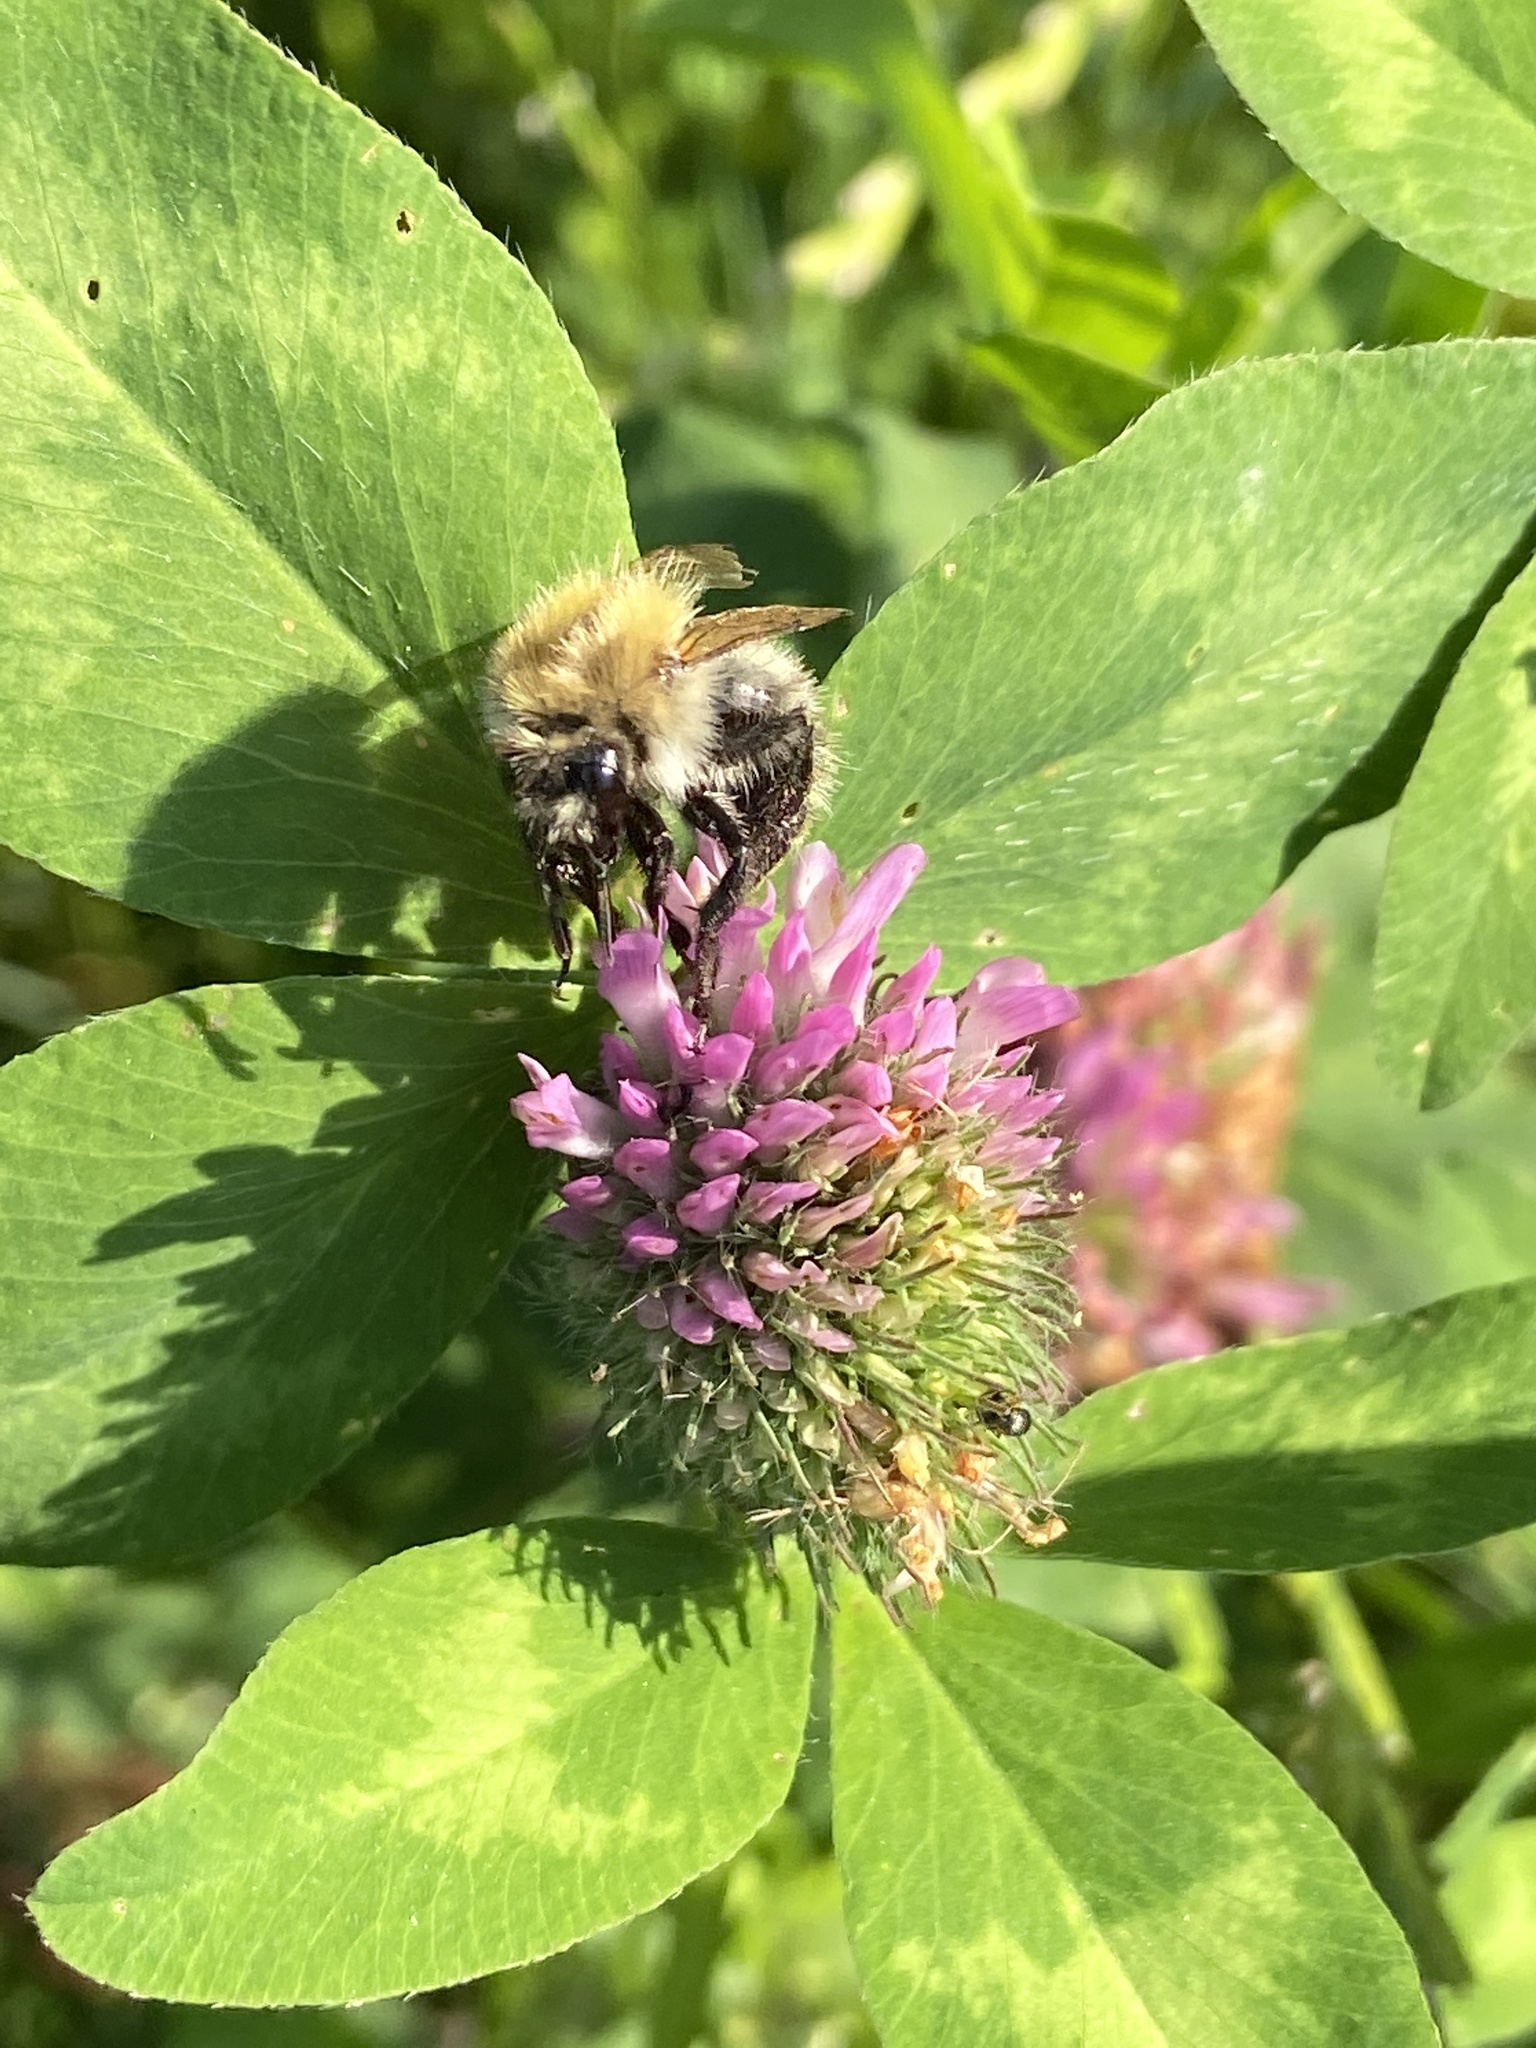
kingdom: Animalia
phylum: Arthropoda
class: Insecta
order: Hymenoptera
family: Apidae
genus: Bombus
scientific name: Bombus pascuorum
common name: Common carder bee
